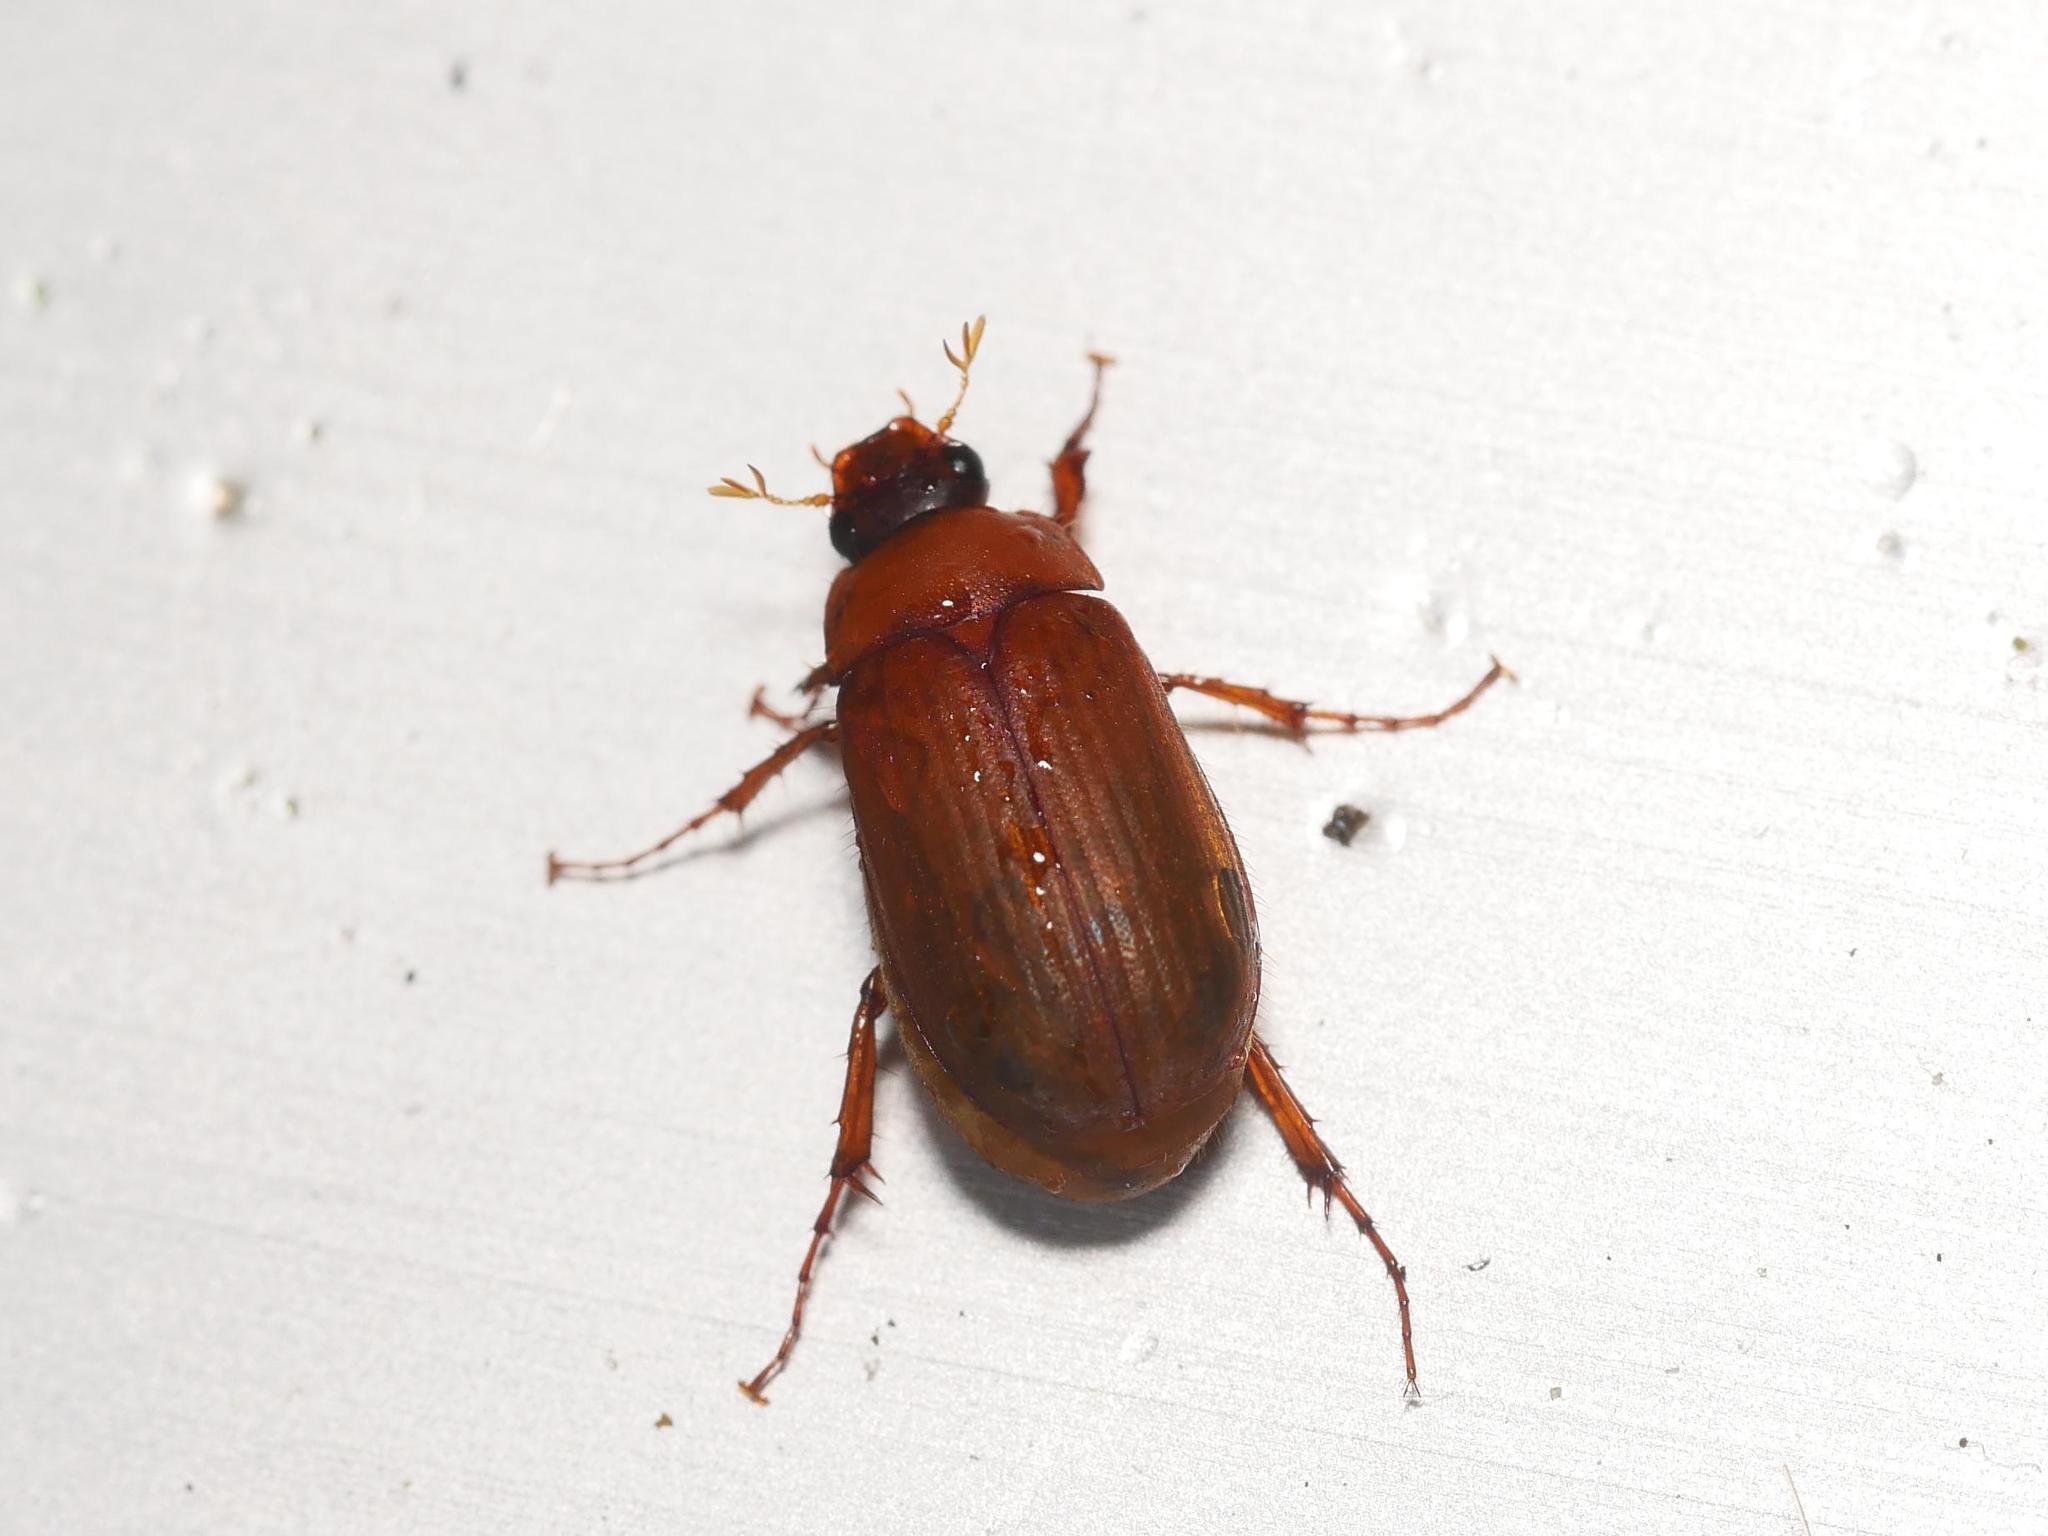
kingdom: Animalia
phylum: Arthropoda
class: Insecta
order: Coleoptera
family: Scarabaeidae
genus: Serica
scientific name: Serica brunnea
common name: Brown chafer
